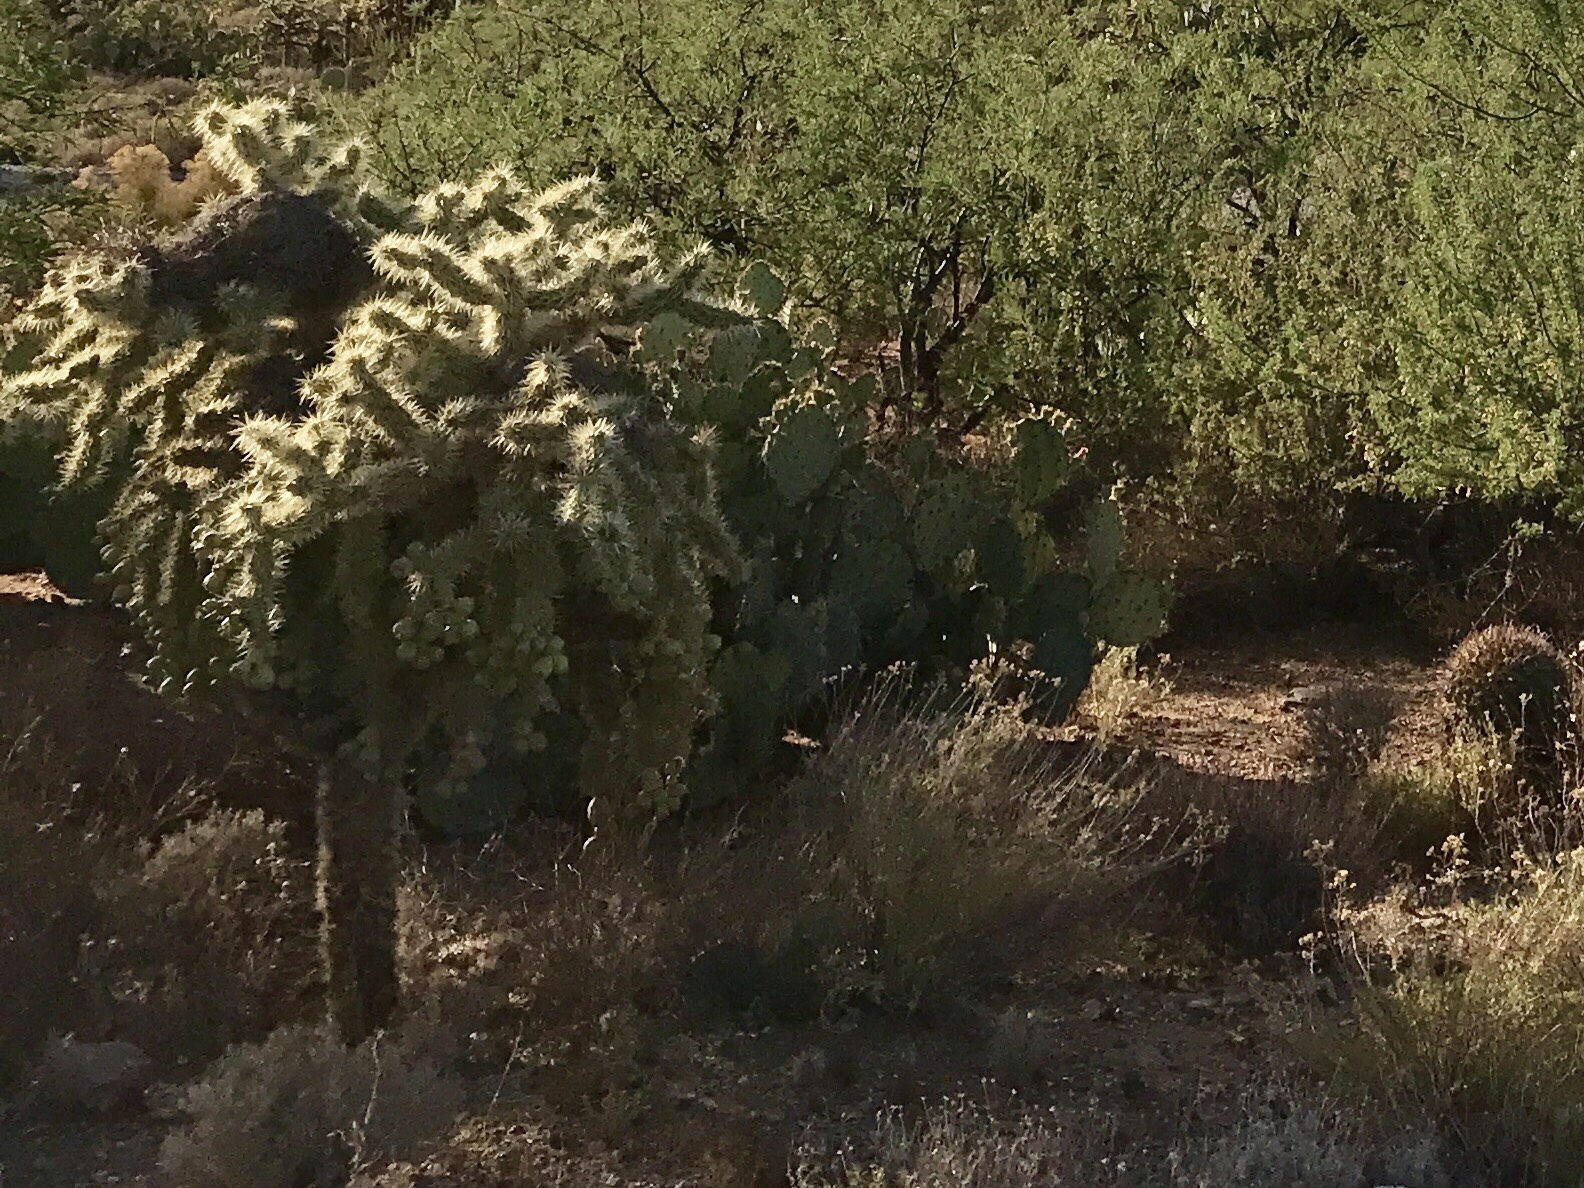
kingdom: Plantae
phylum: Tracheophyta
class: Magnoliopsida
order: Caryophyllales
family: Cactaceae
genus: Cylindropuntia
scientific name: Cylindropuntia fulgida
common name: Jumping cholla
